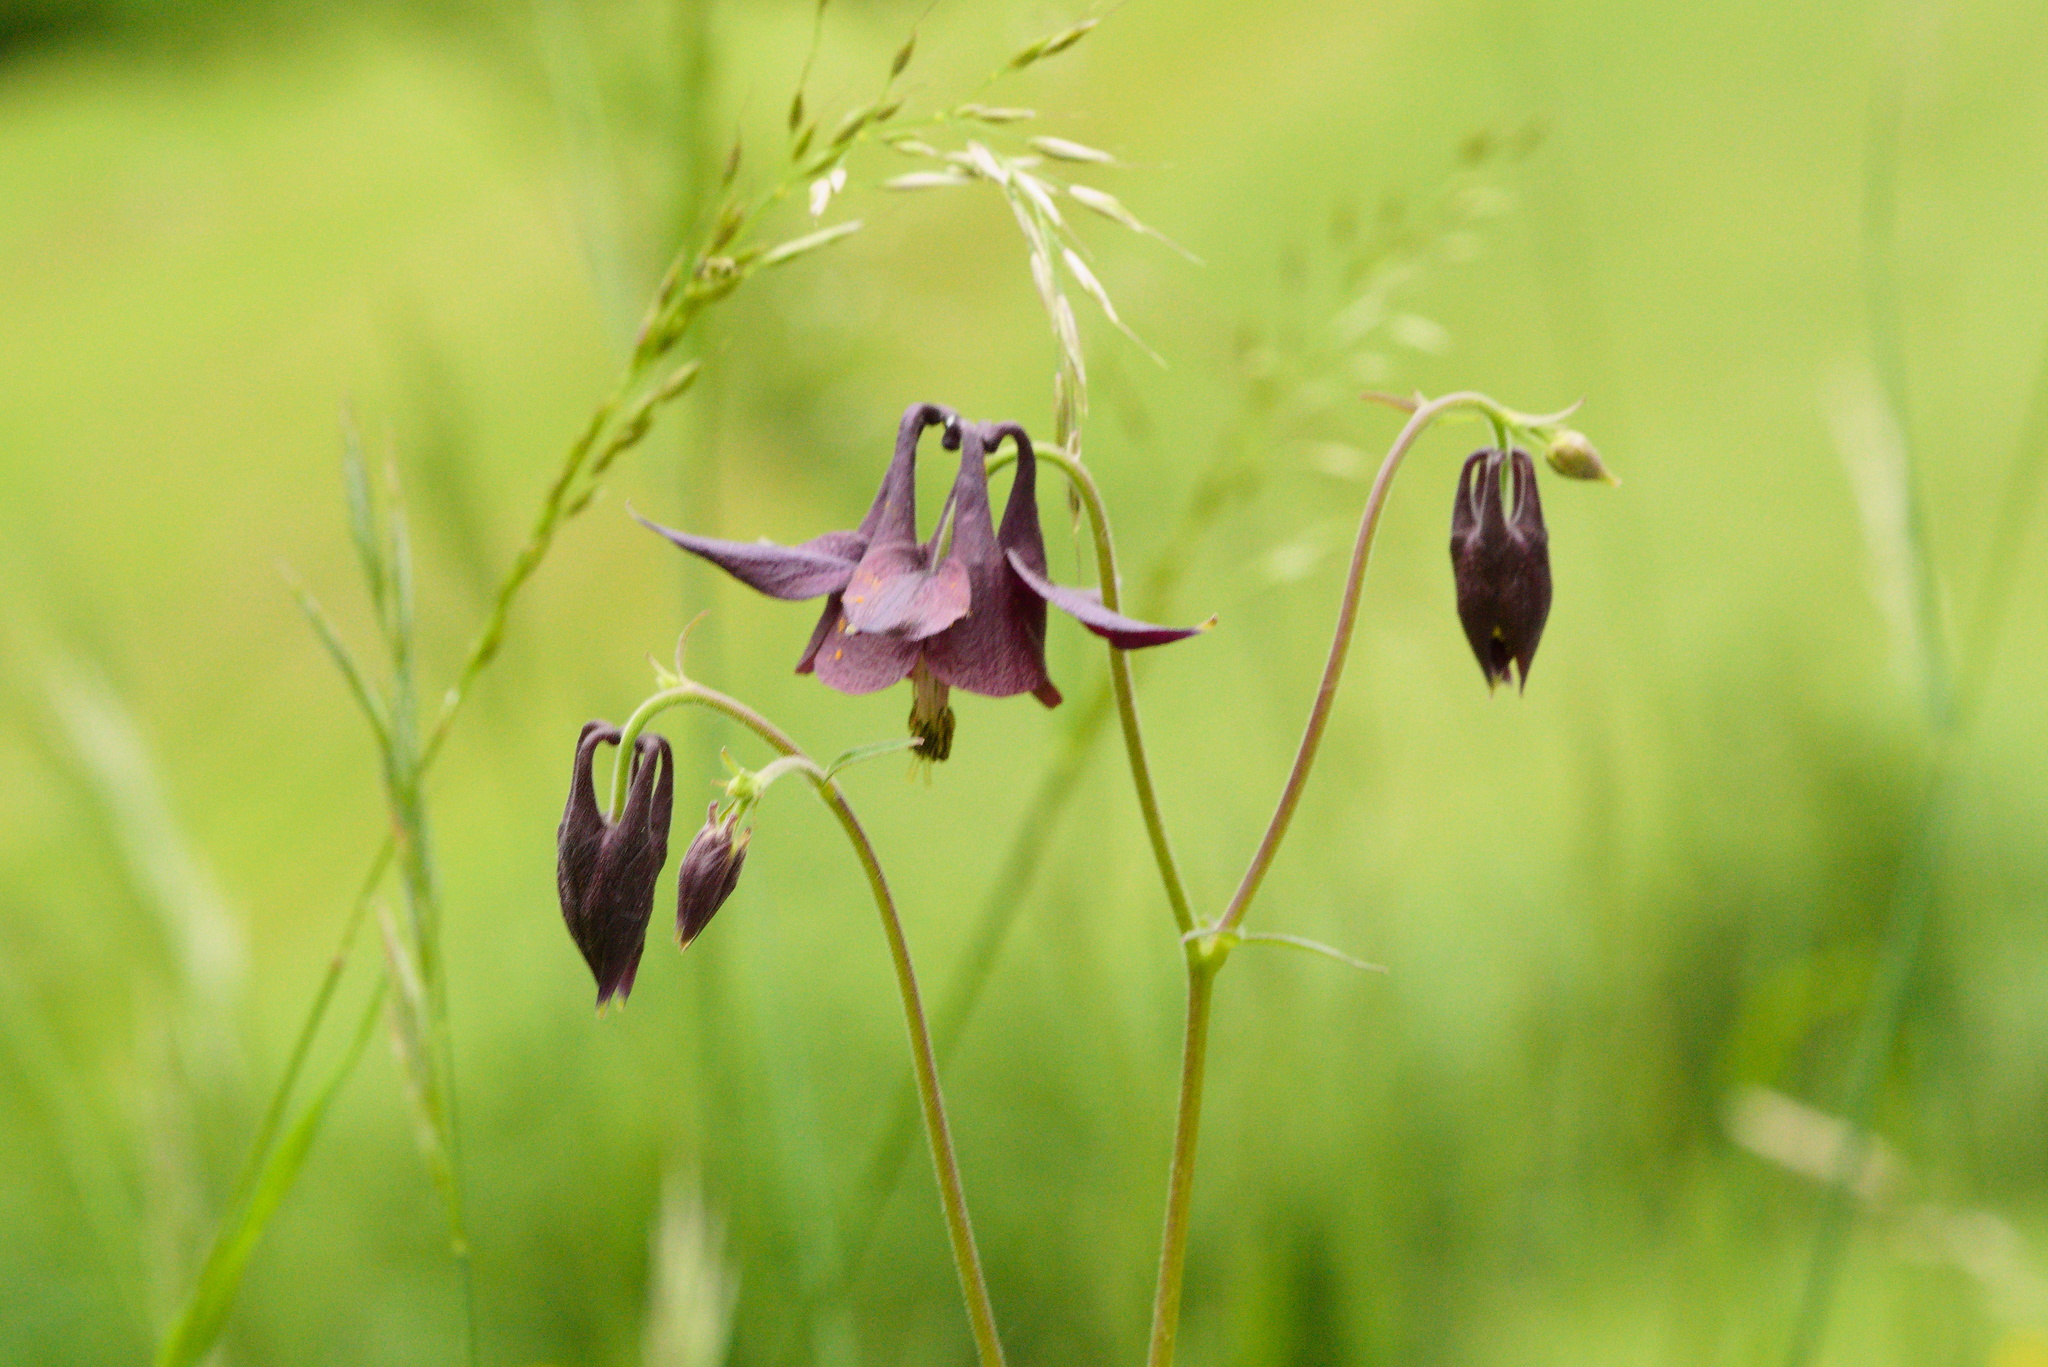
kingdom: Plantae
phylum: Tracheophyta
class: Magnoliopsida
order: Ranunculales
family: Ranunculaceae
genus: Aquilegia
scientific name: Aquilegia atrata
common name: Dark columbine
